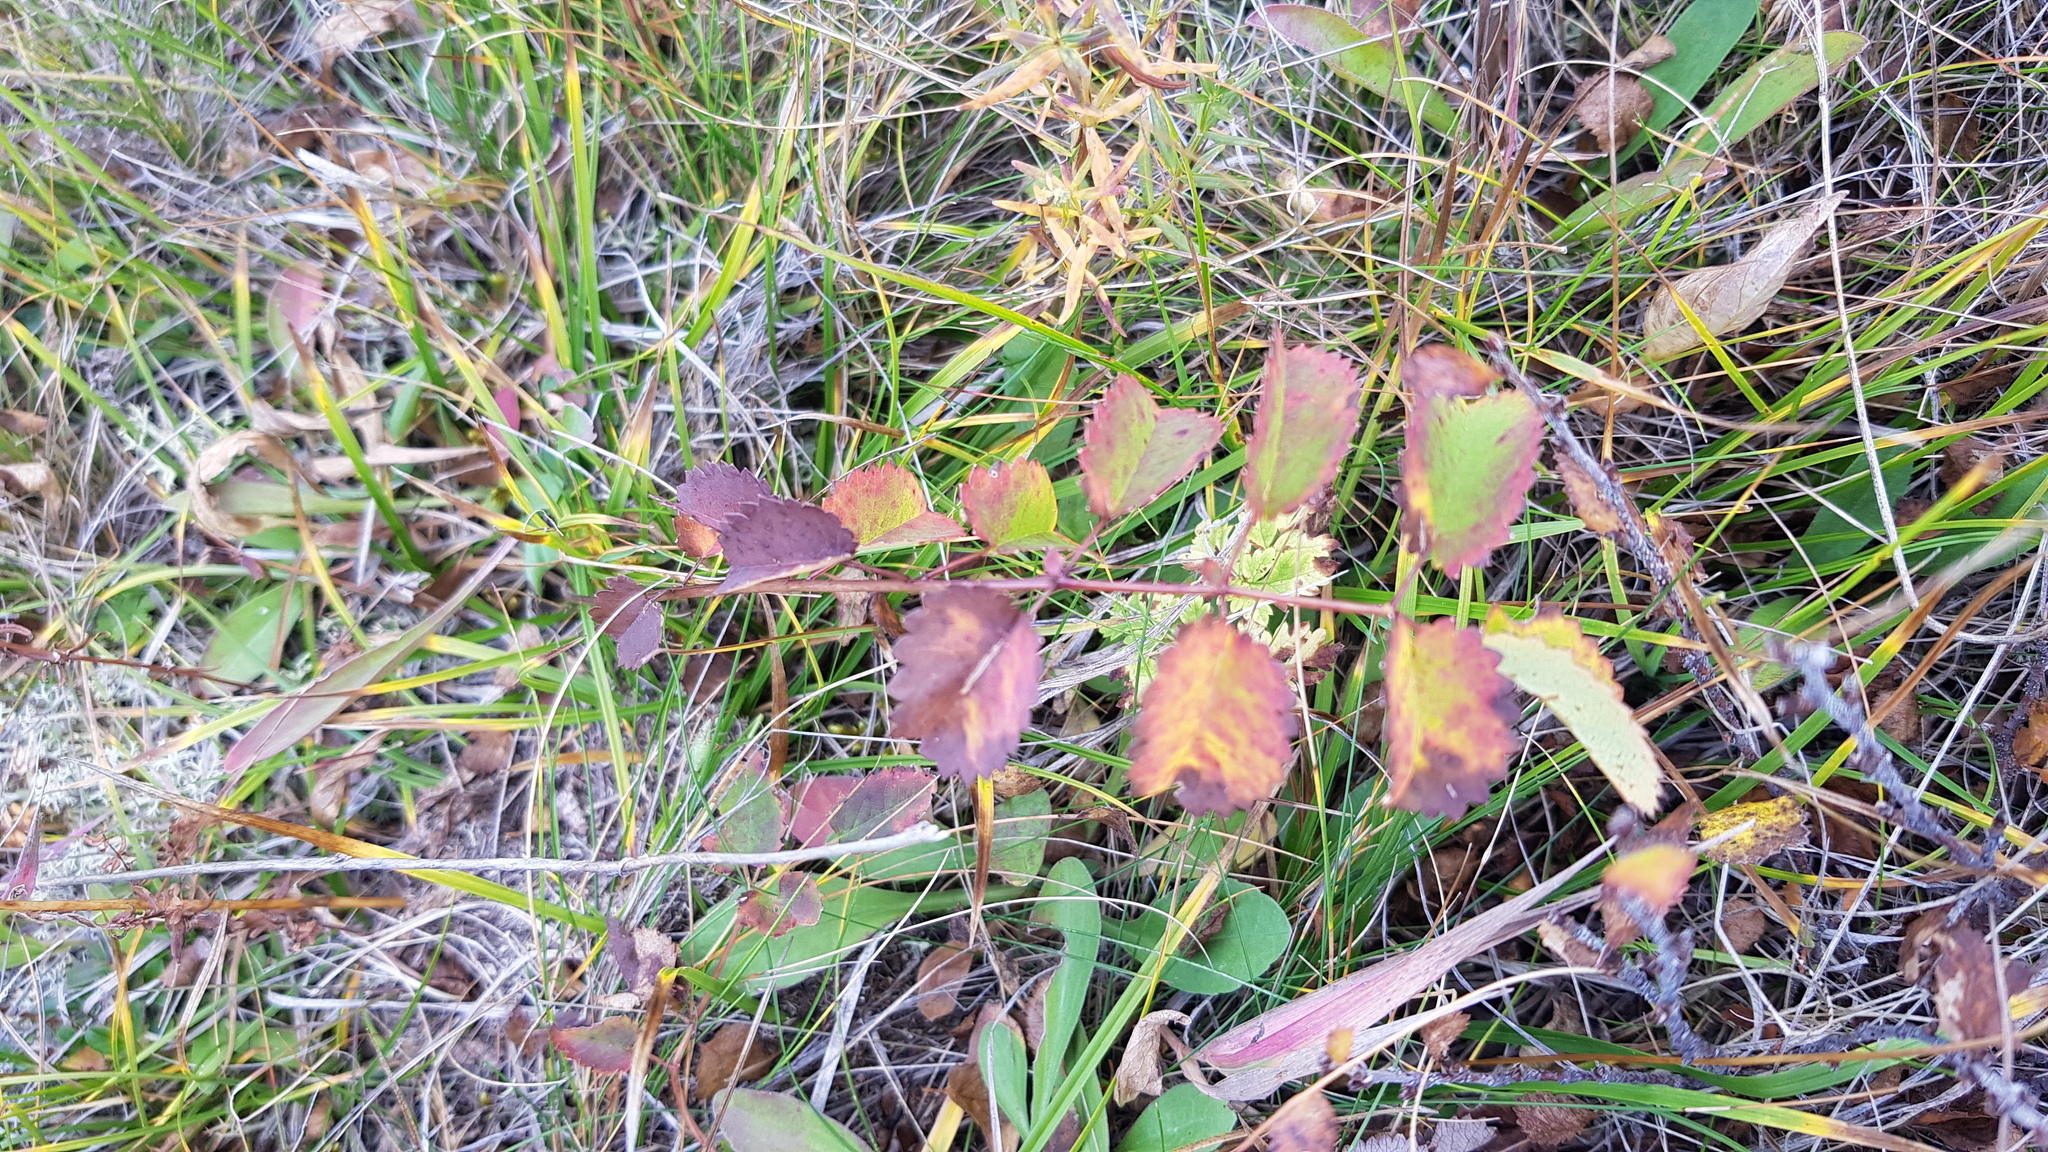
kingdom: Plantae
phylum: Tracheophyta
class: Magnoliopsida
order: Rosales
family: Rosaceae
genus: Sanguisorba
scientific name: Sanguisorba officinalis
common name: Great burnet
